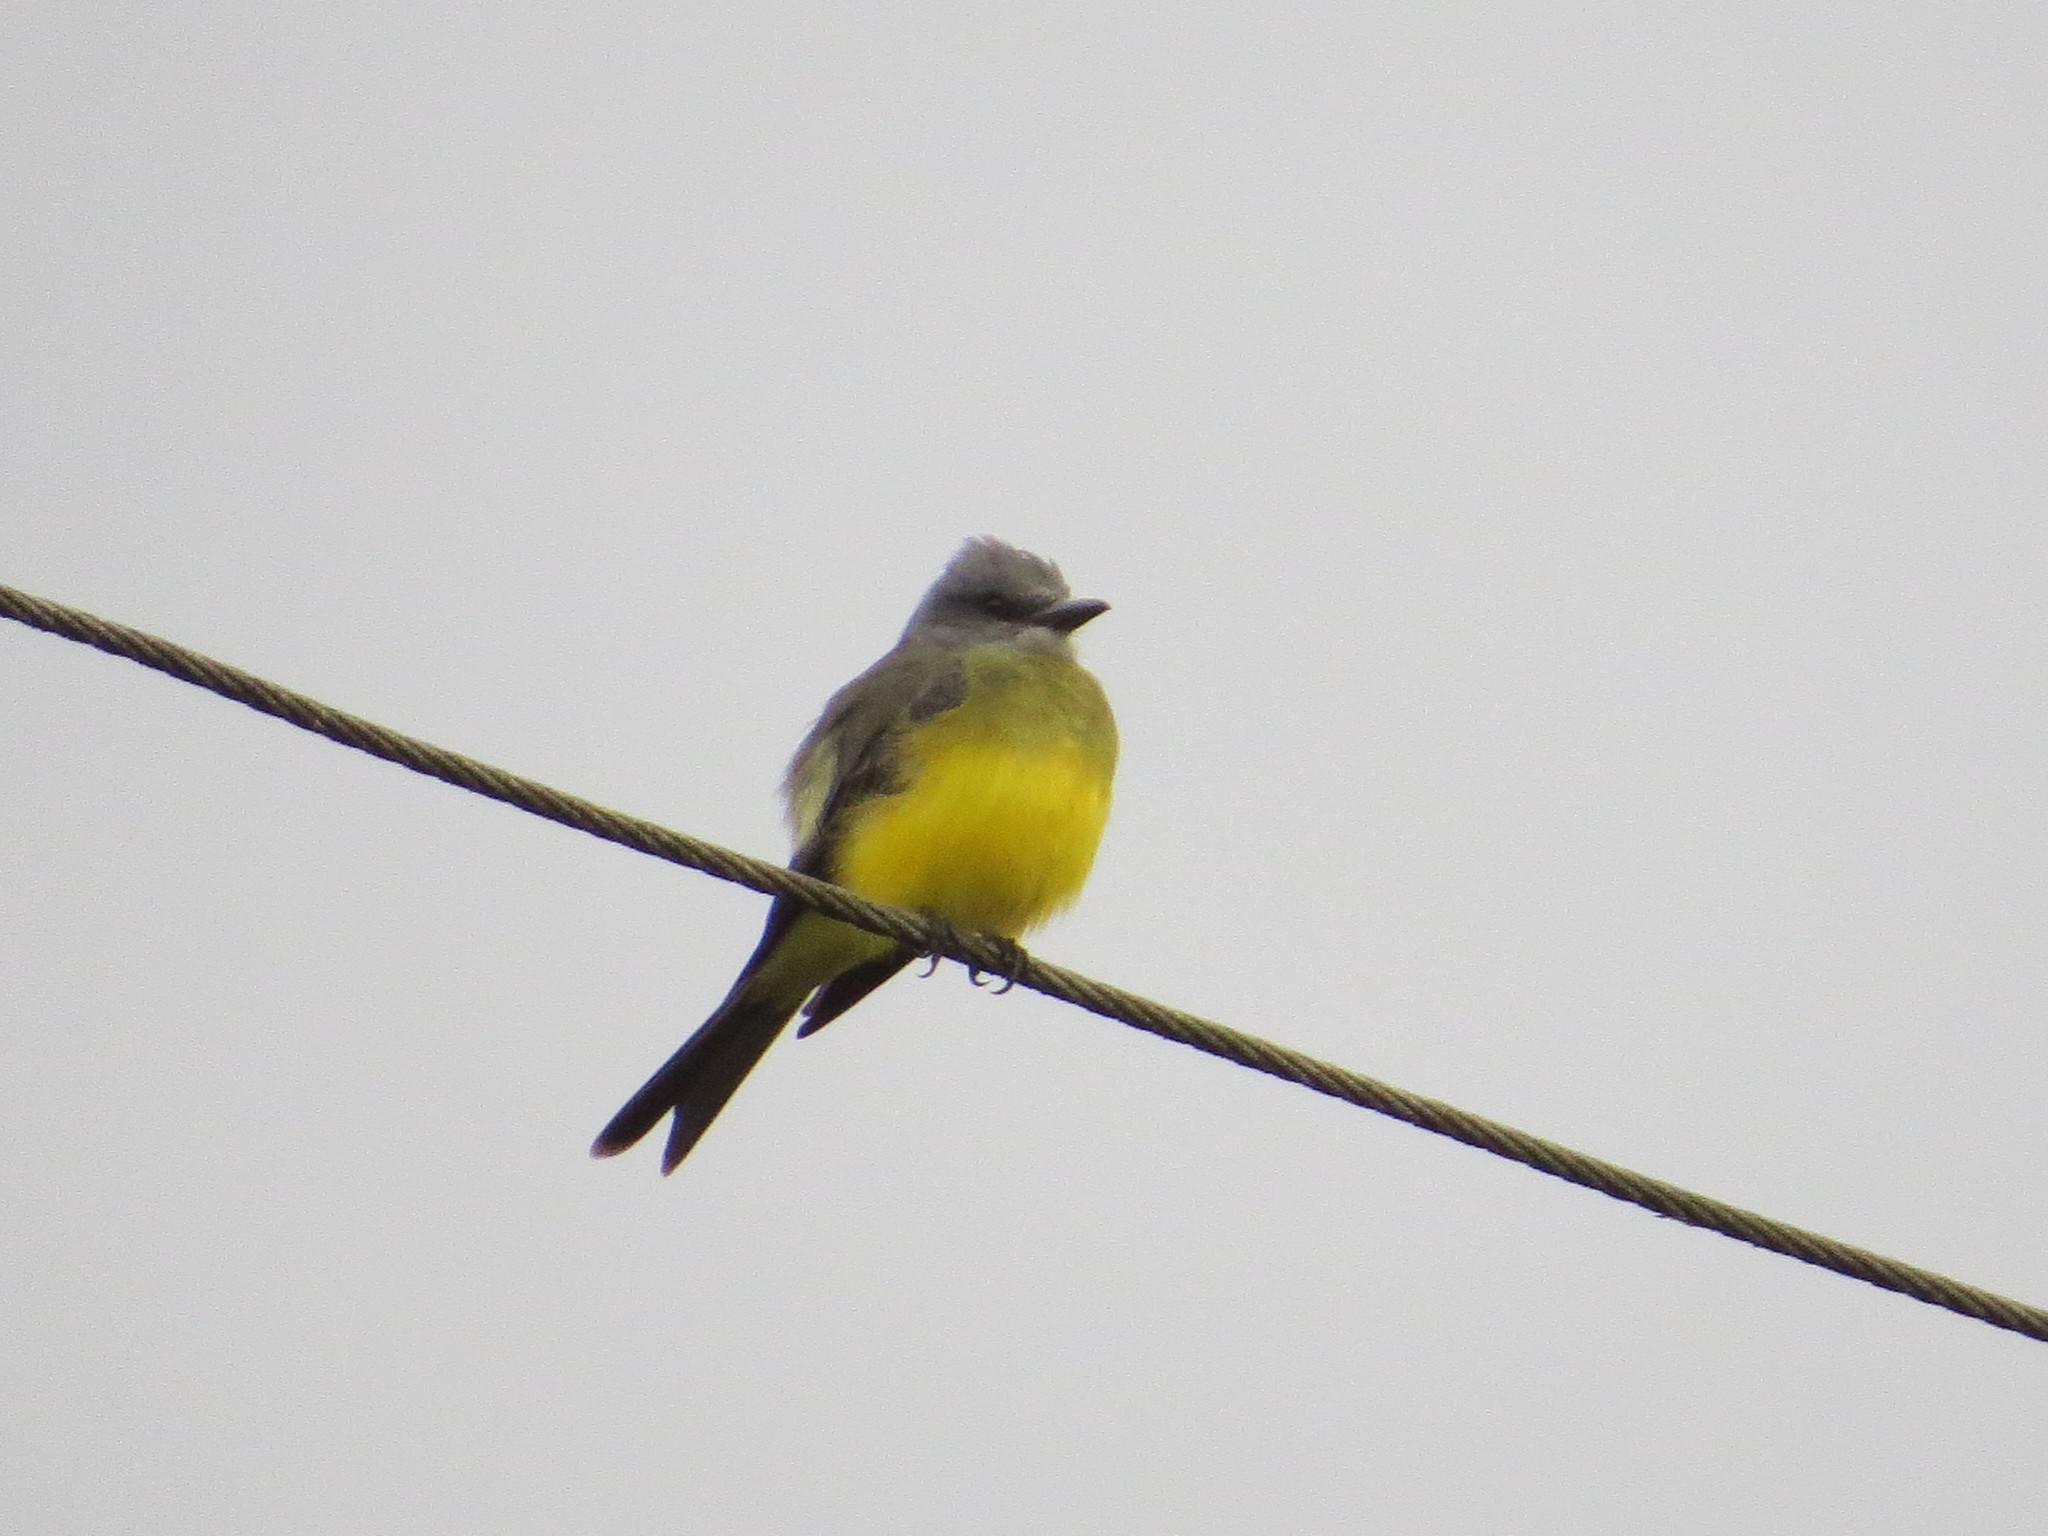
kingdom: Animalia
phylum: Chordata
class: Aves
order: Passeriformes
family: Tyrannidae
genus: Tyrannus
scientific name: Tyrannus melancholicus
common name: Tropical kingbird
